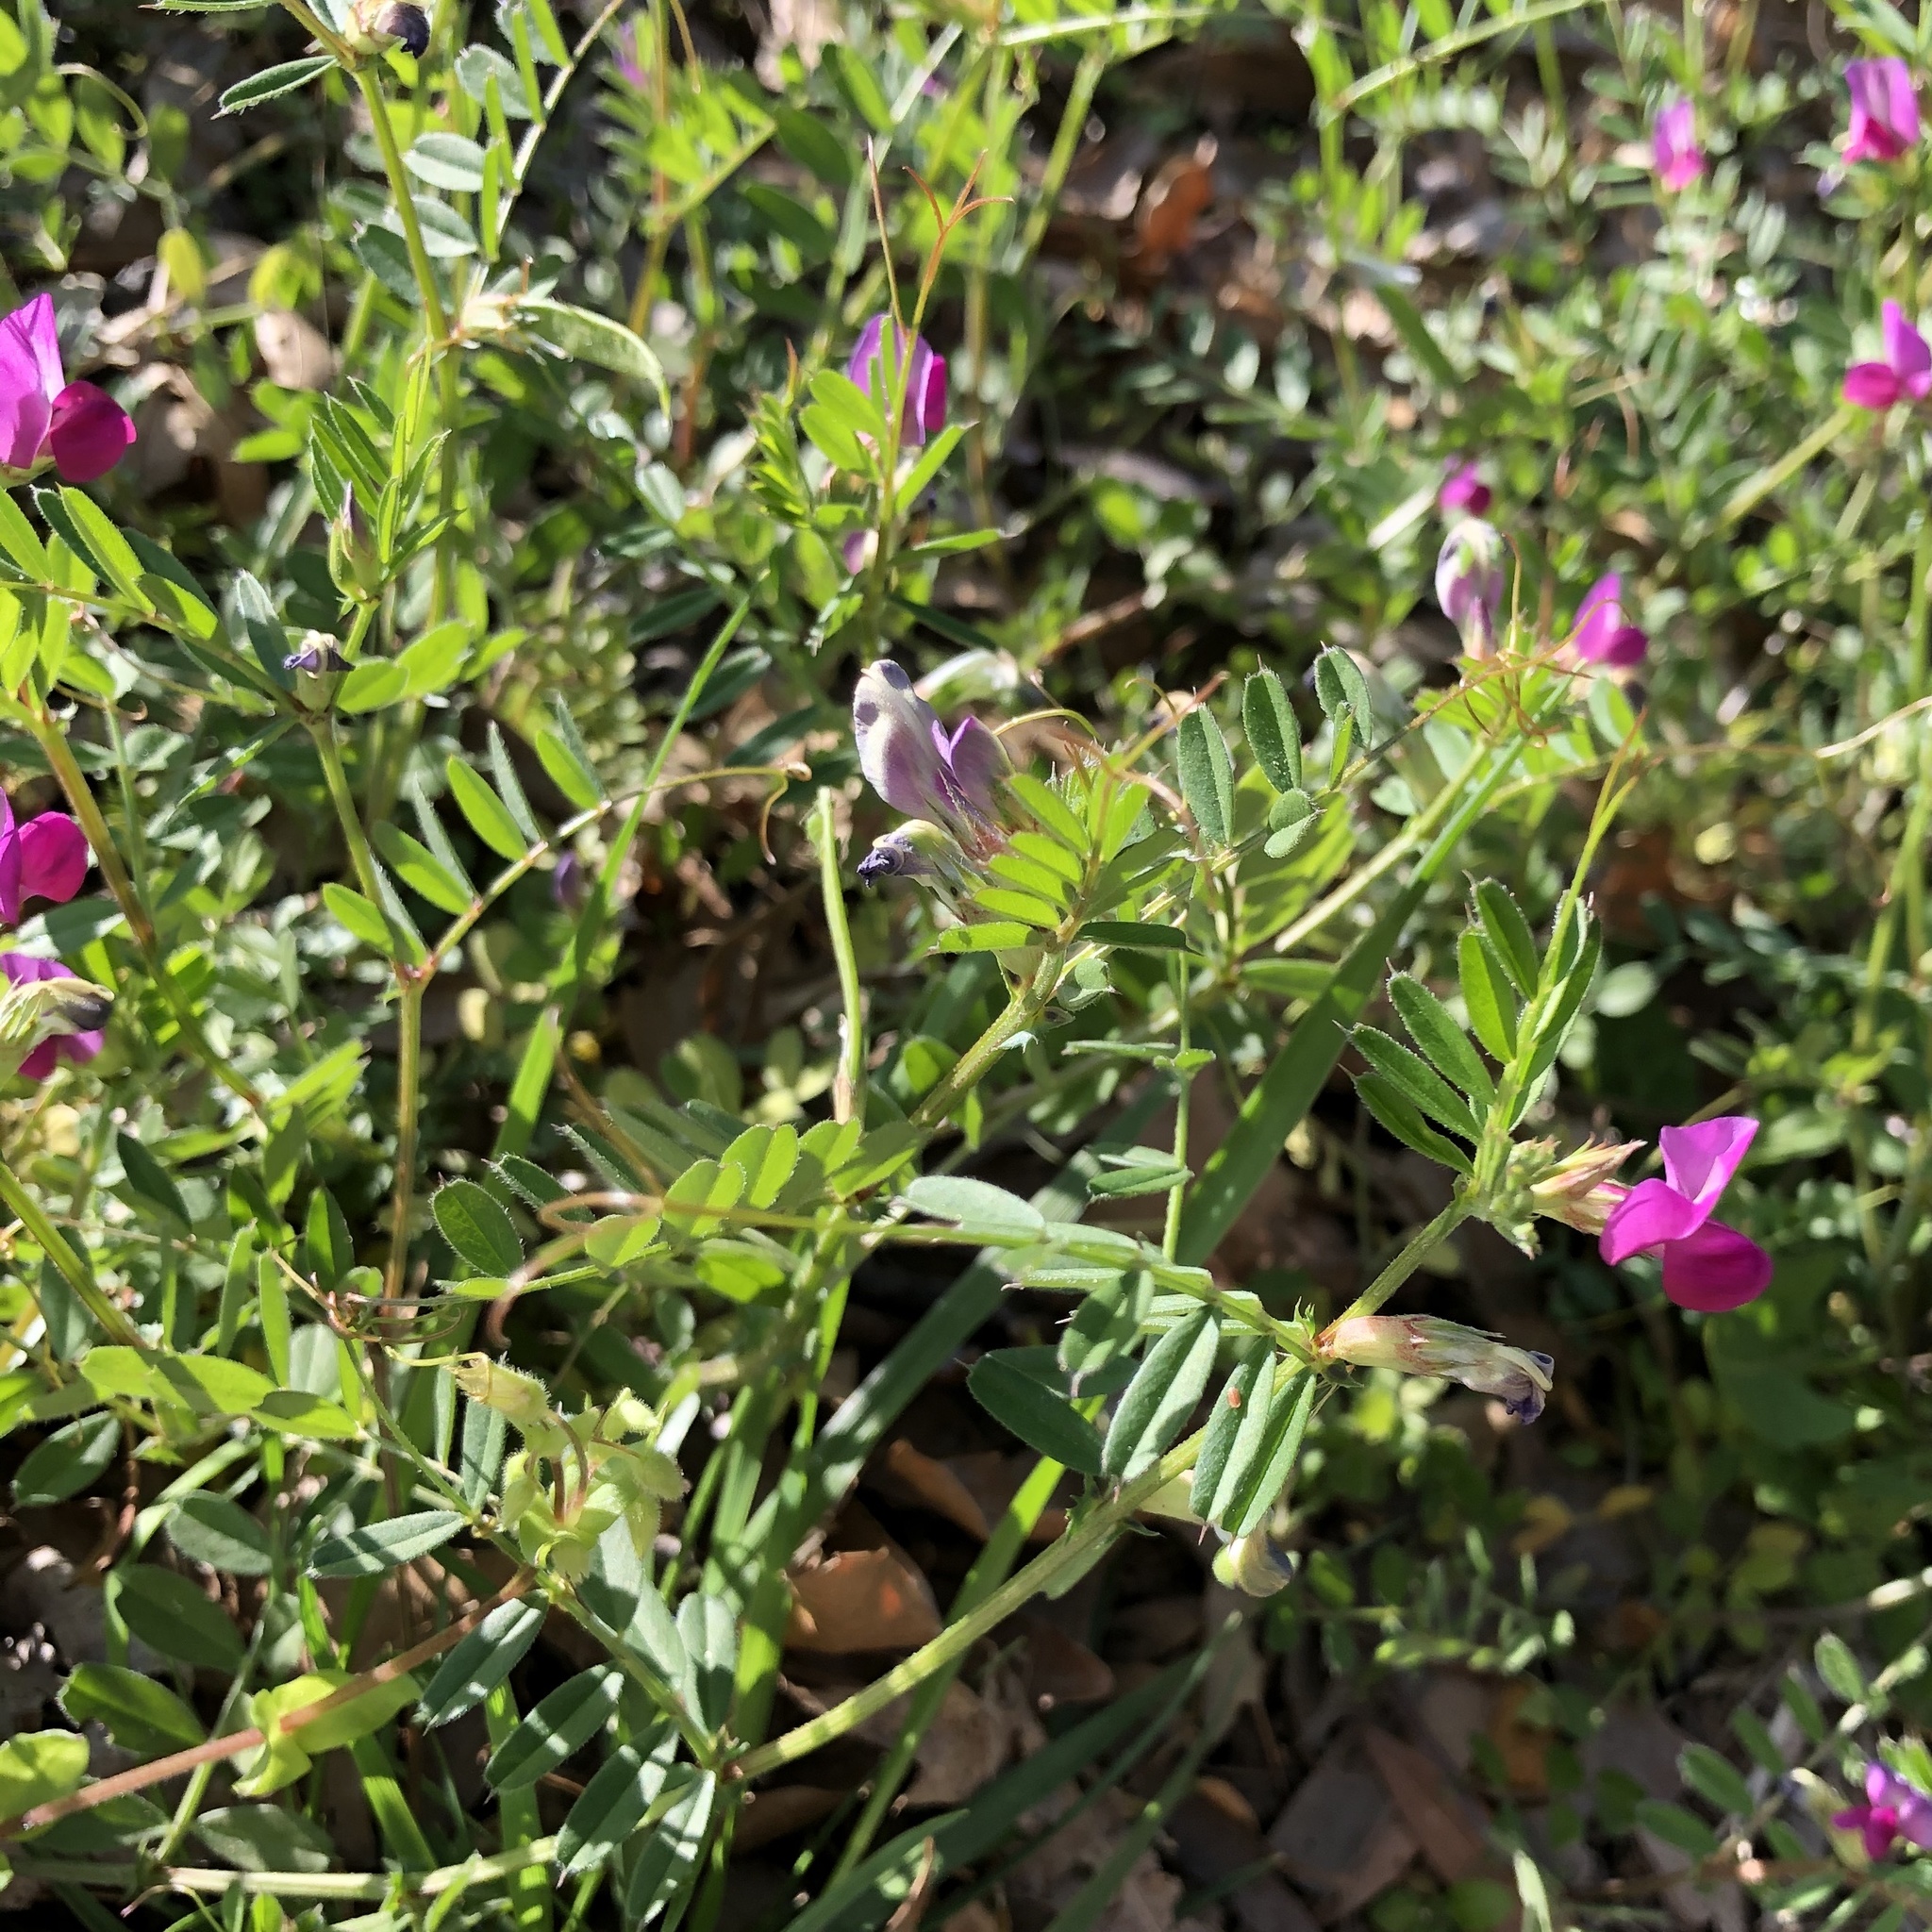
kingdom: Plantae
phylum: Tracheophyta
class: Magnoliopsida
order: Fabales
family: Fabaceae
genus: Vicia
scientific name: Vicia sativa
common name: Garden vetch
